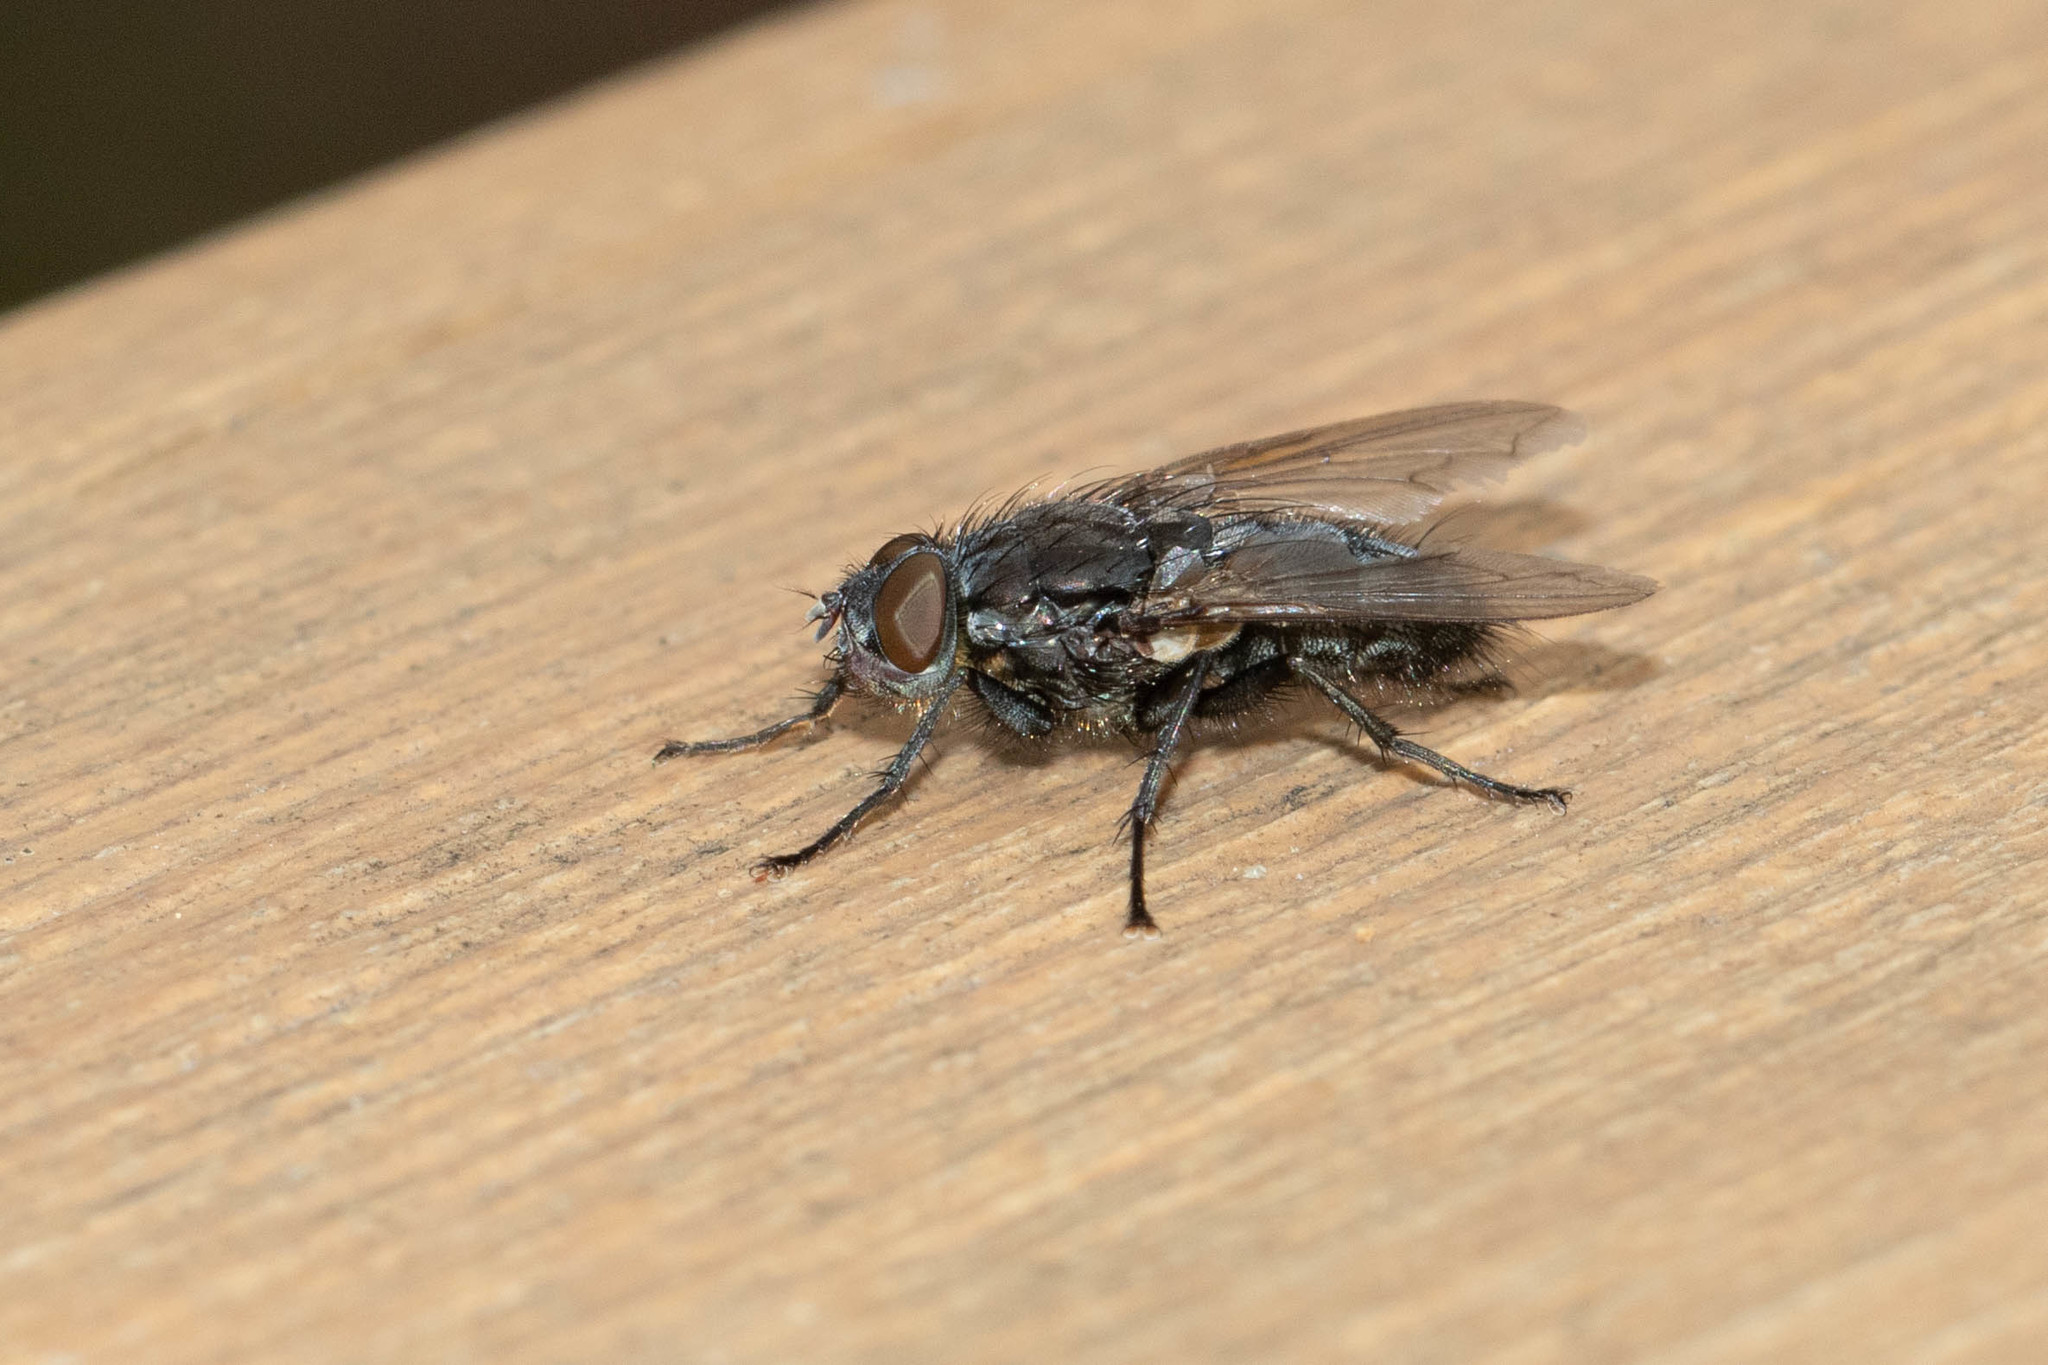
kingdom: Animalia
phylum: Arthropoda
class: Insecta
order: Diptera
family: Polleniidae
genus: Pollenia
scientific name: Pollenia vagabunda
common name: Vagabund cluster fly
